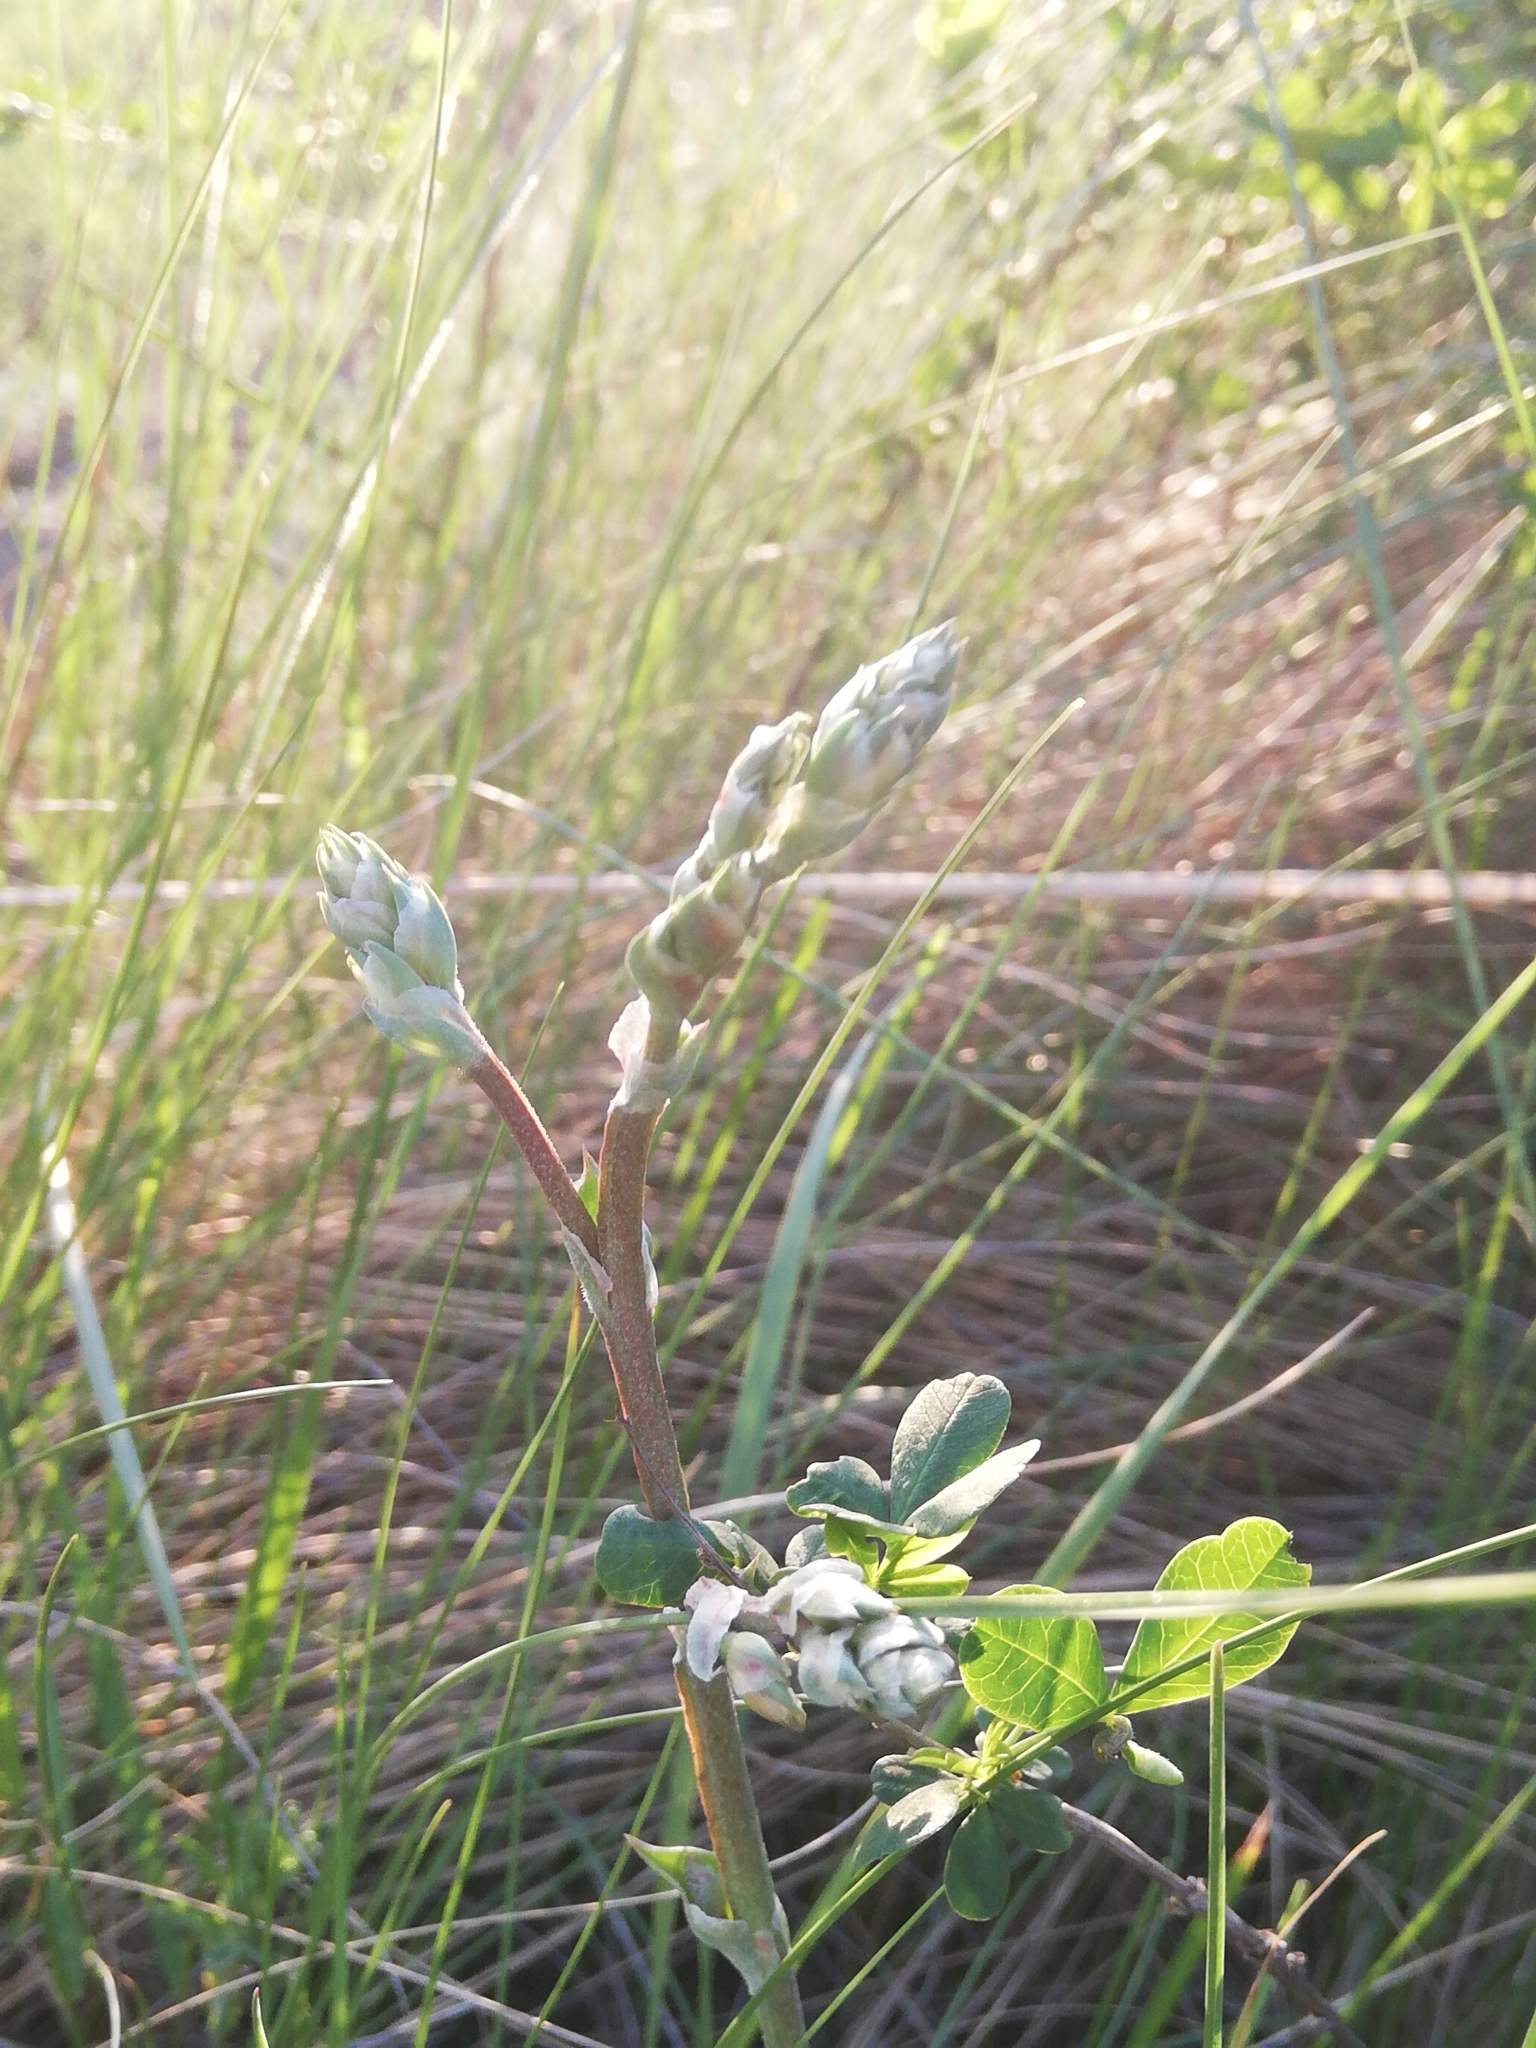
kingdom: Plantae
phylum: Tracheophyta
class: Magnoliopsida
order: Caryophyllales
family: Plumbaginaceae
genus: Goniolimon
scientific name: Goniolimon speciosum
